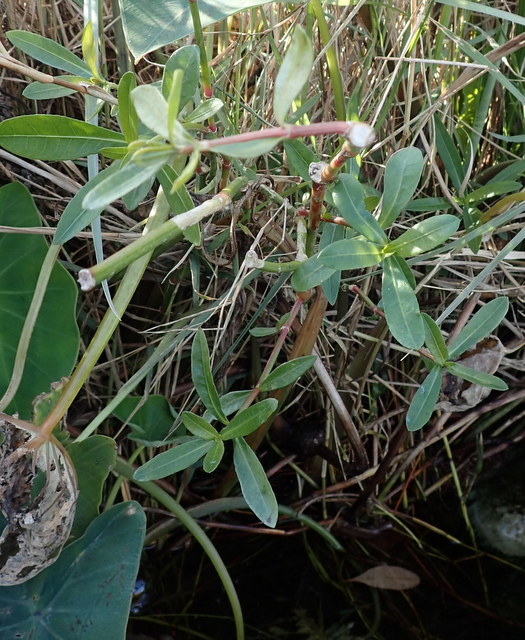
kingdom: Plantae
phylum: Tracheophyta
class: Magnoliopsida
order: Caryophyllales
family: Amaranthaceae
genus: Alternanthera
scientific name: Alternanthera philoxeroides
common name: Alligatorweed
